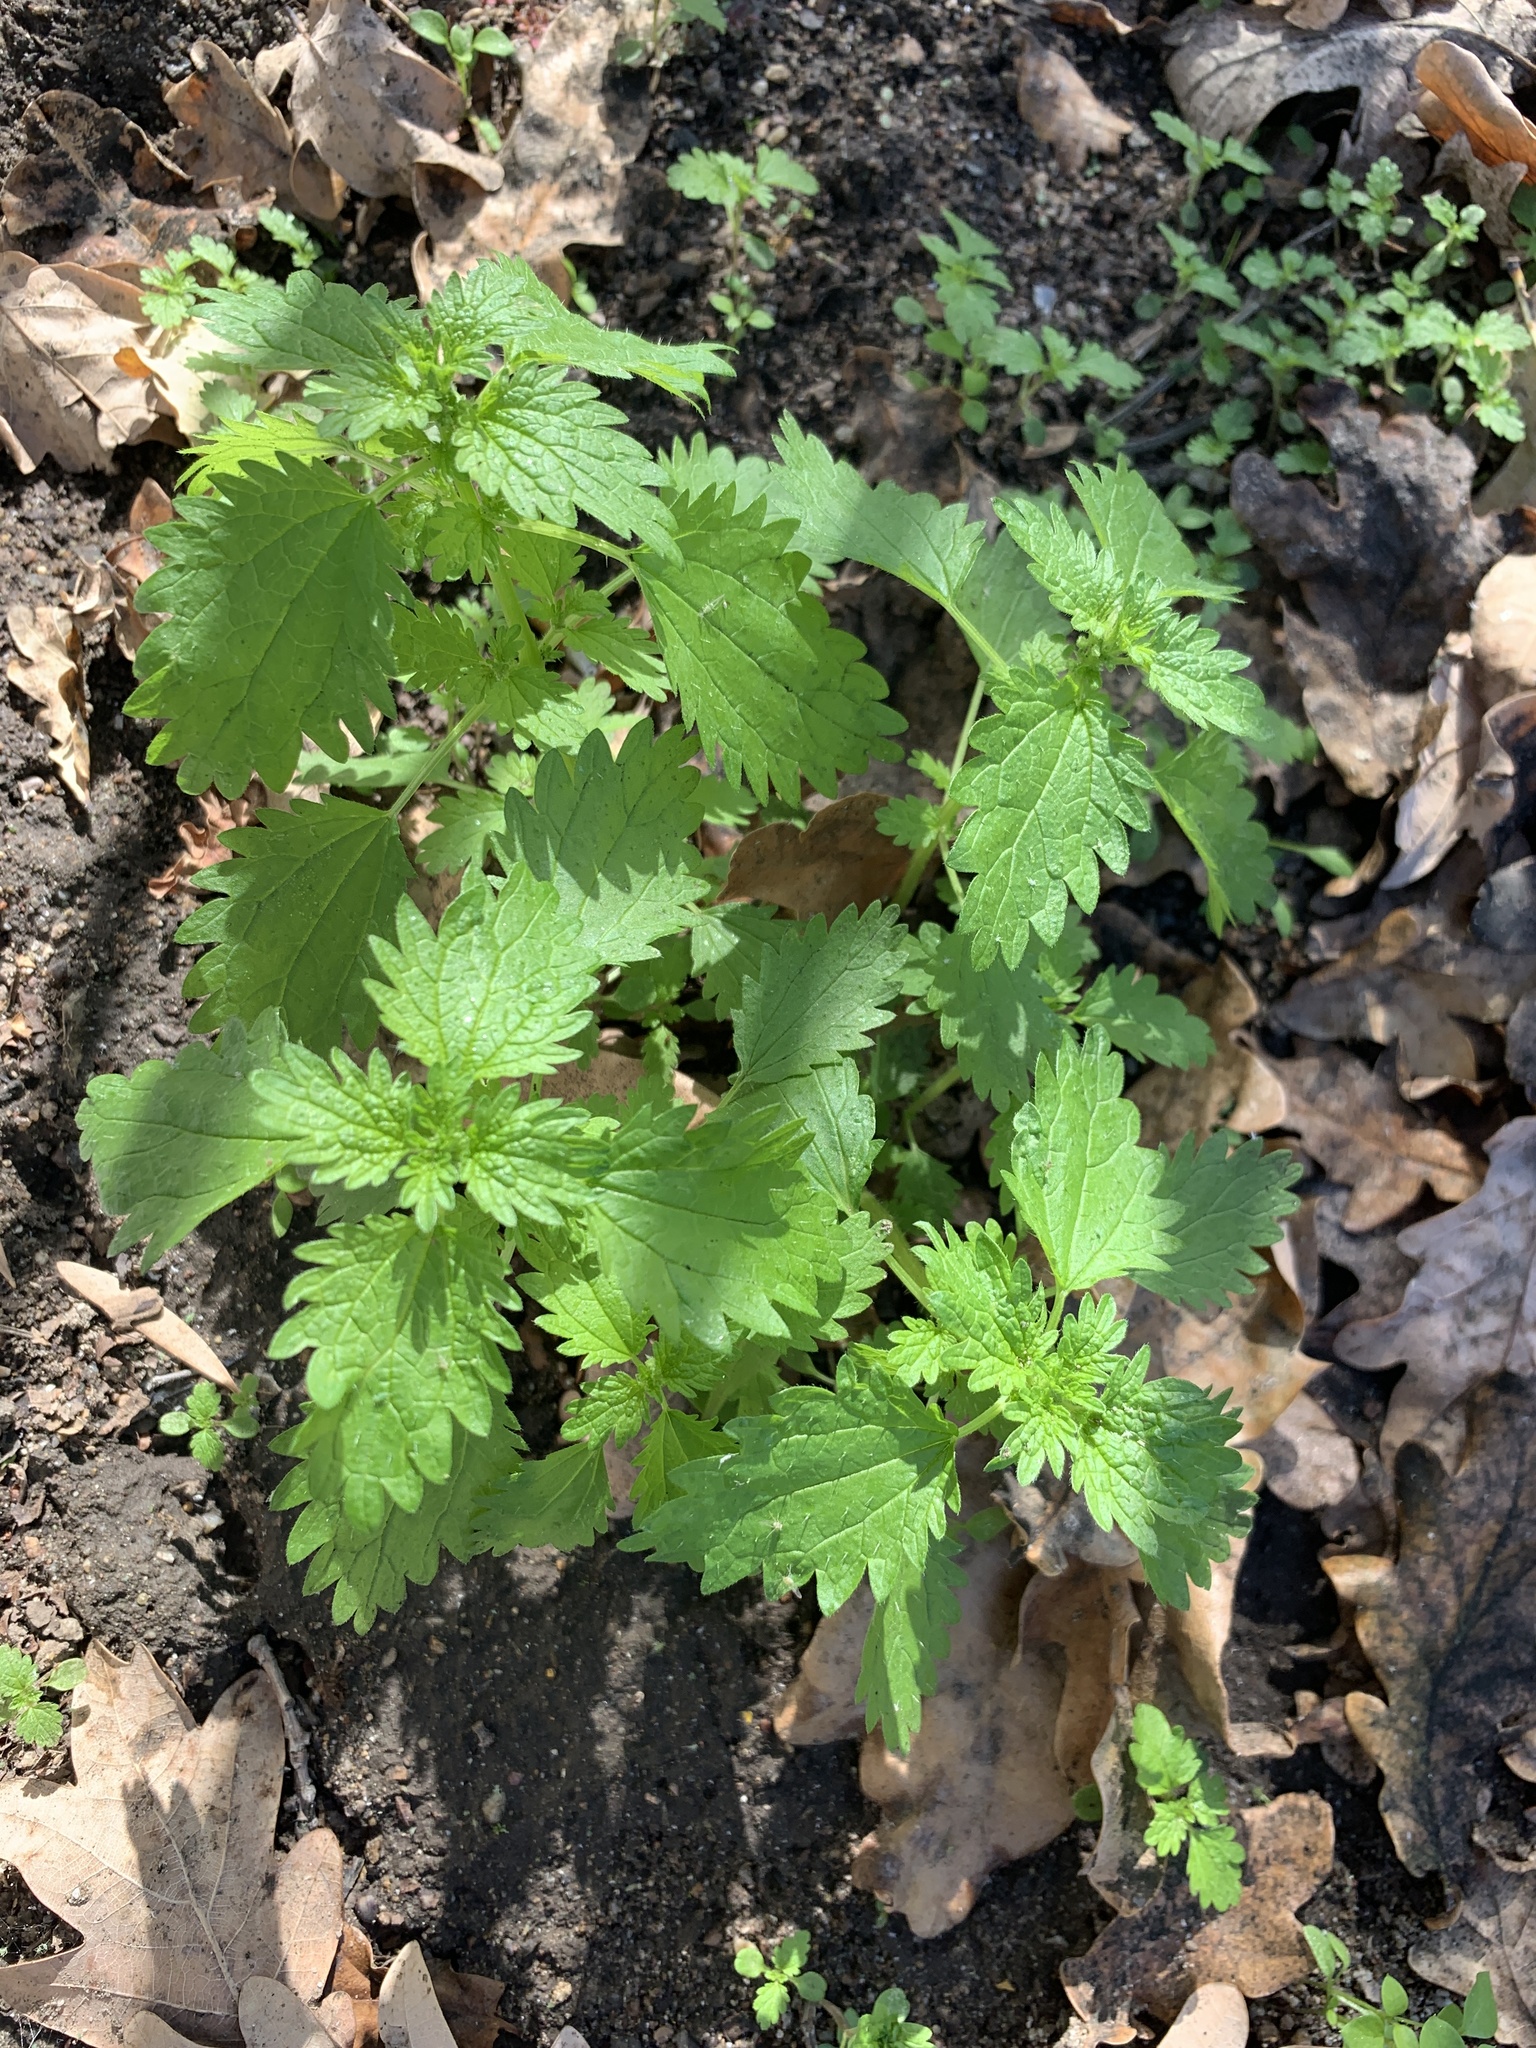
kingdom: Plantae
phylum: Tracheophyta
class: Magnoliopsida
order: Rosales
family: Urticaceae
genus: Urtica
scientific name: Urtica urens
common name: Dwarf nettle
